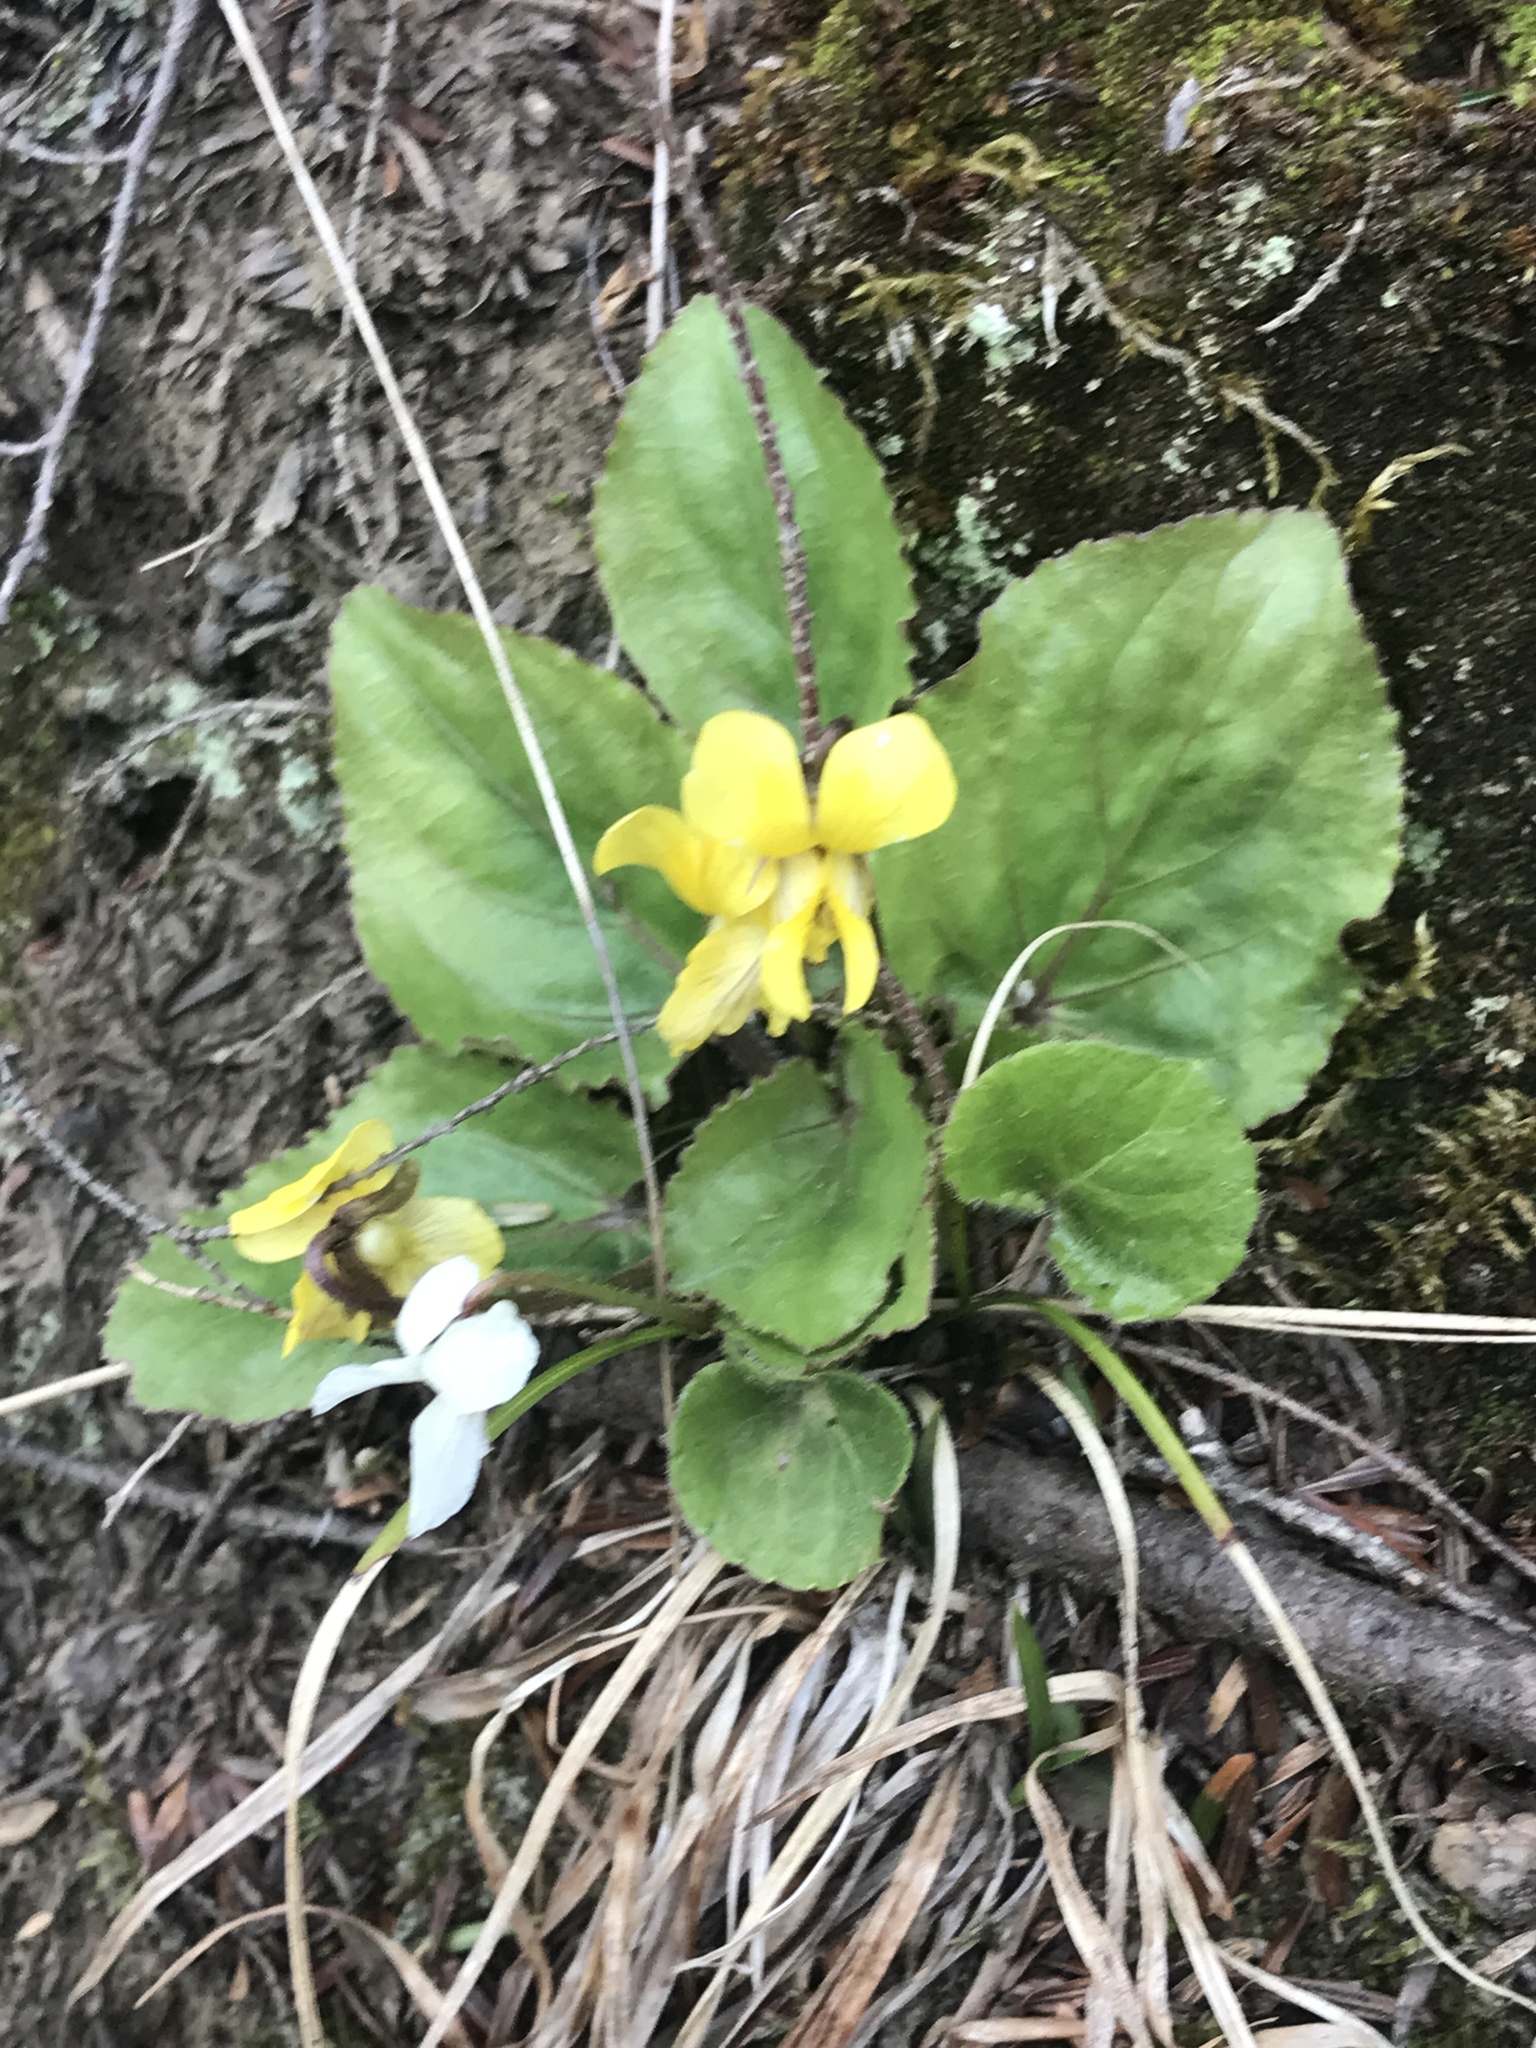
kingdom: Plantae
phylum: Tracheophyta
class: Magnoliopsida
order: Malpighiales
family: Violaceae
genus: Viola
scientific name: Viola rotundifolia
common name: Early yellow violet
